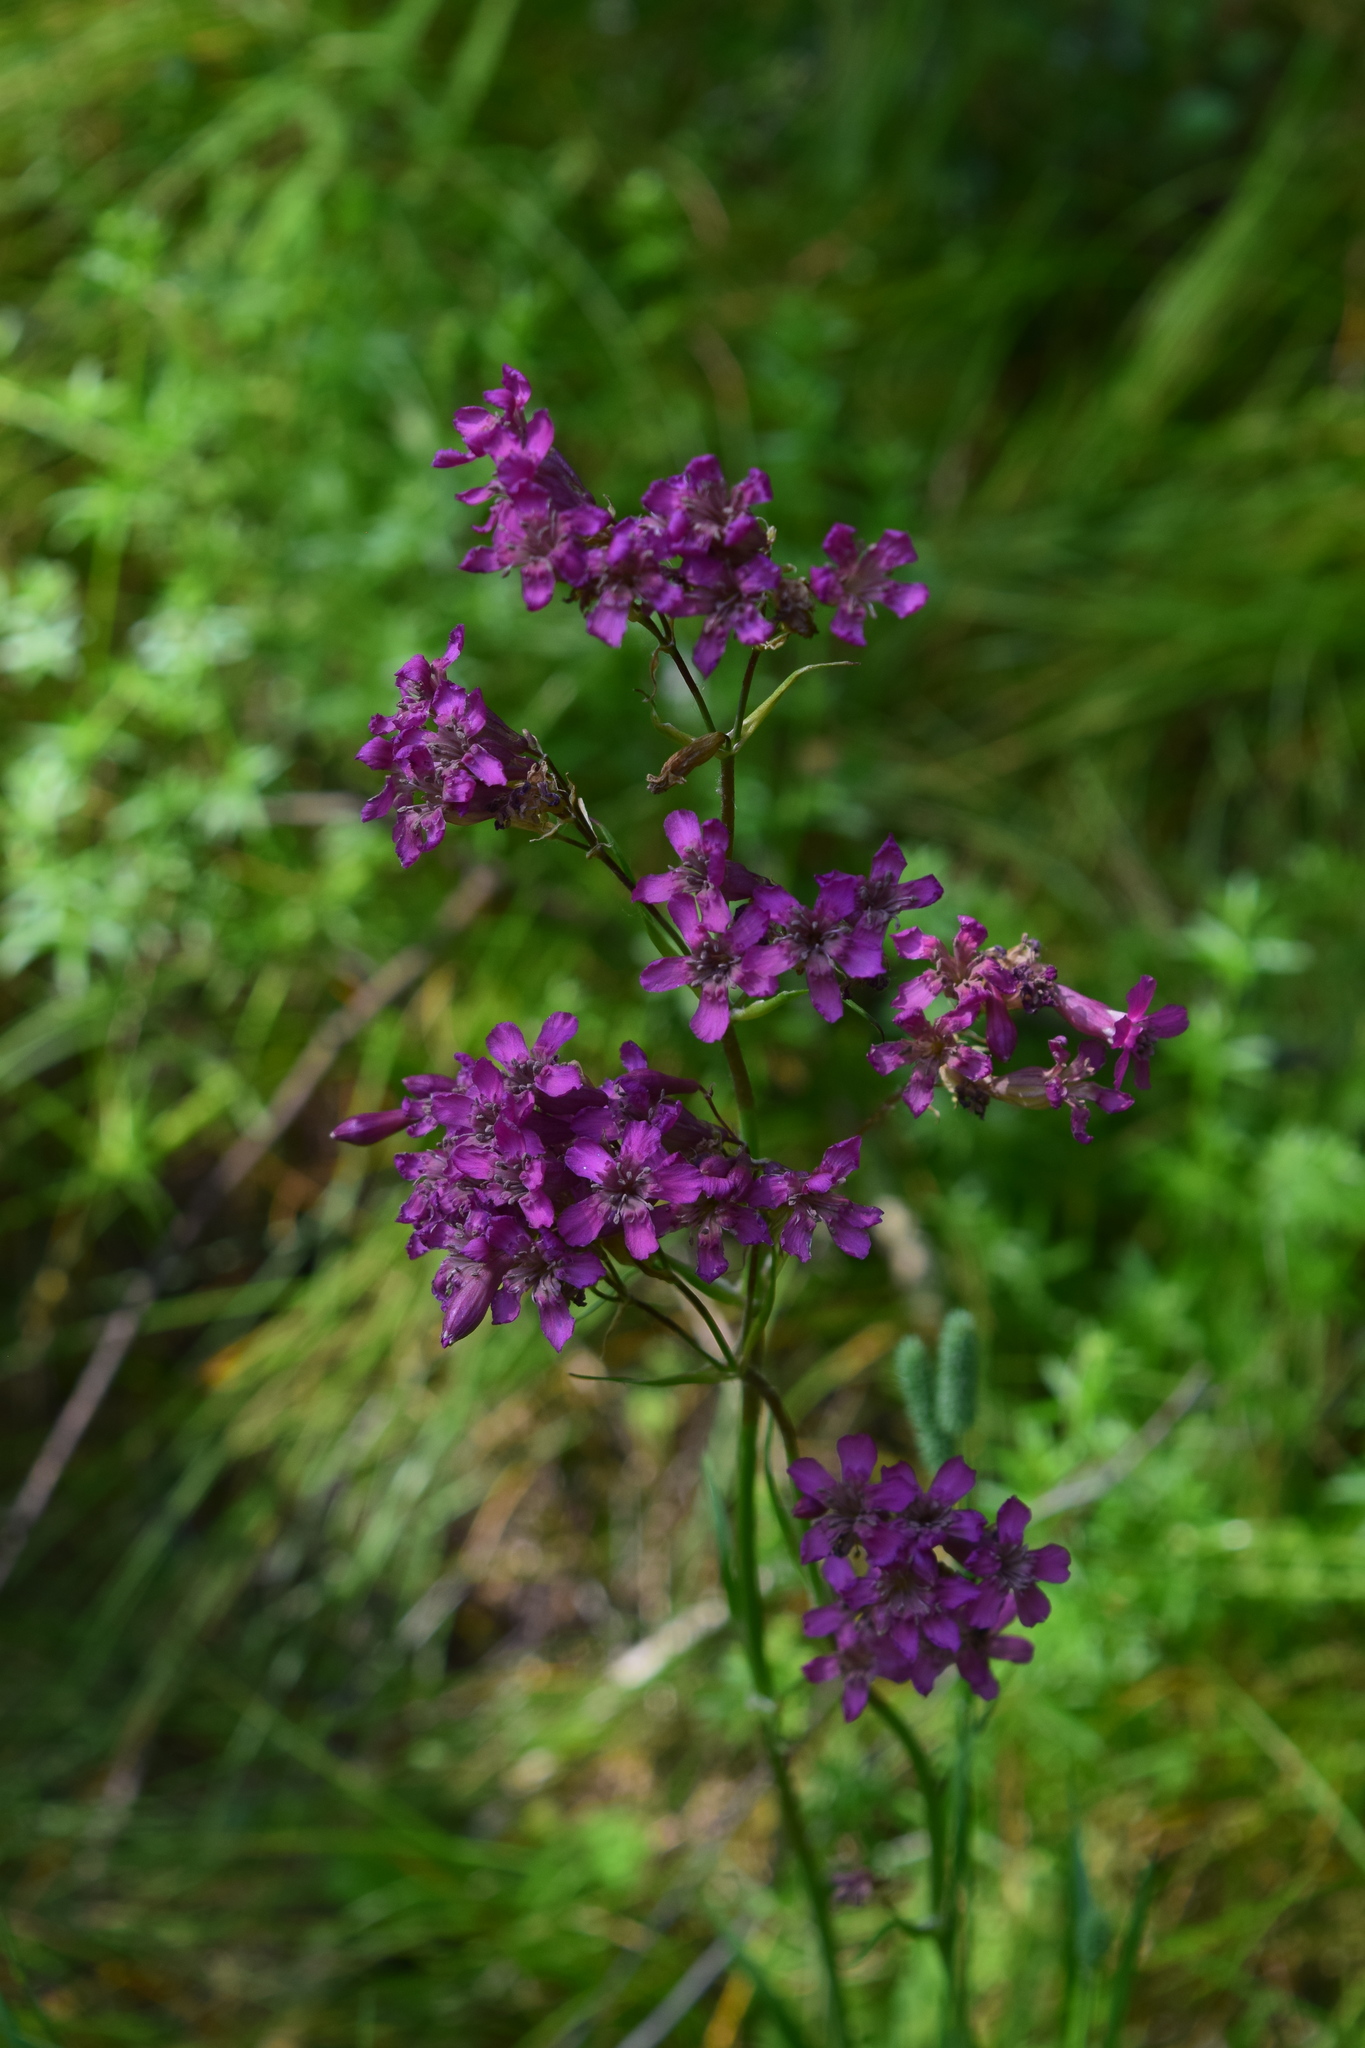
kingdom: Plantae
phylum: Tracheophyta
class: Magnoliopsida
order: Caryophyllales
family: Caryophyllaceae
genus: Viscaria
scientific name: Viscaria vulgaris
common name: Clammy campion
